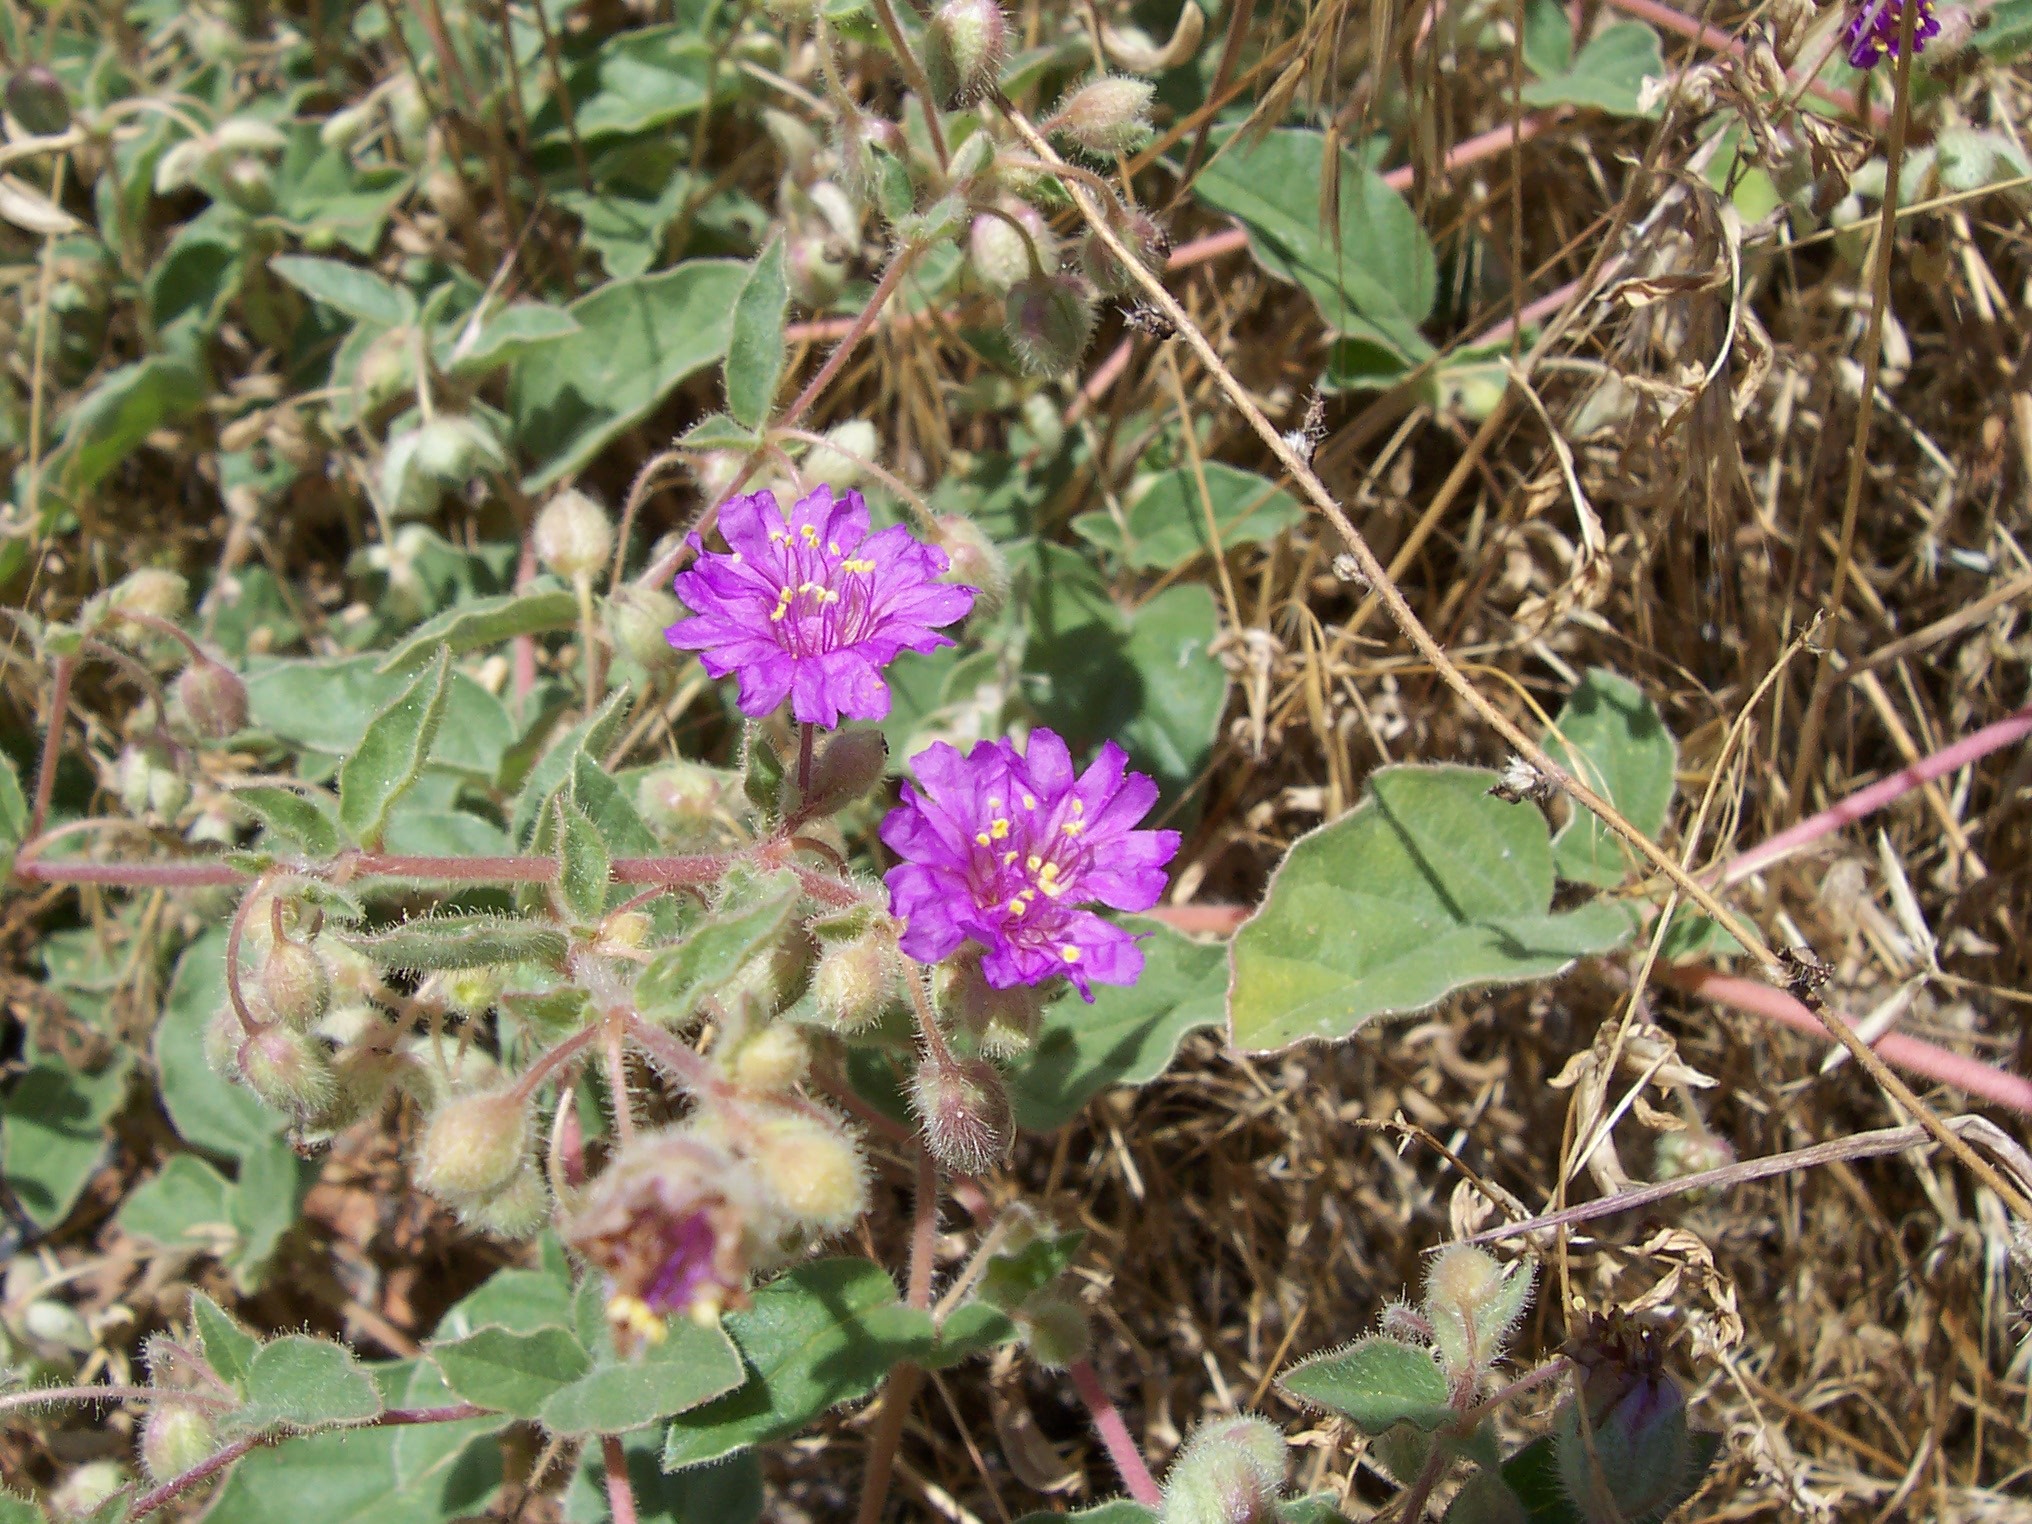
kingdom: Plantae
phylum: Tracheophyta
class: Magnoliopsida
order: Caryophyllales
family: Nyctaginaceae
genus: Allionia
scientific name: Allionia incarnata
